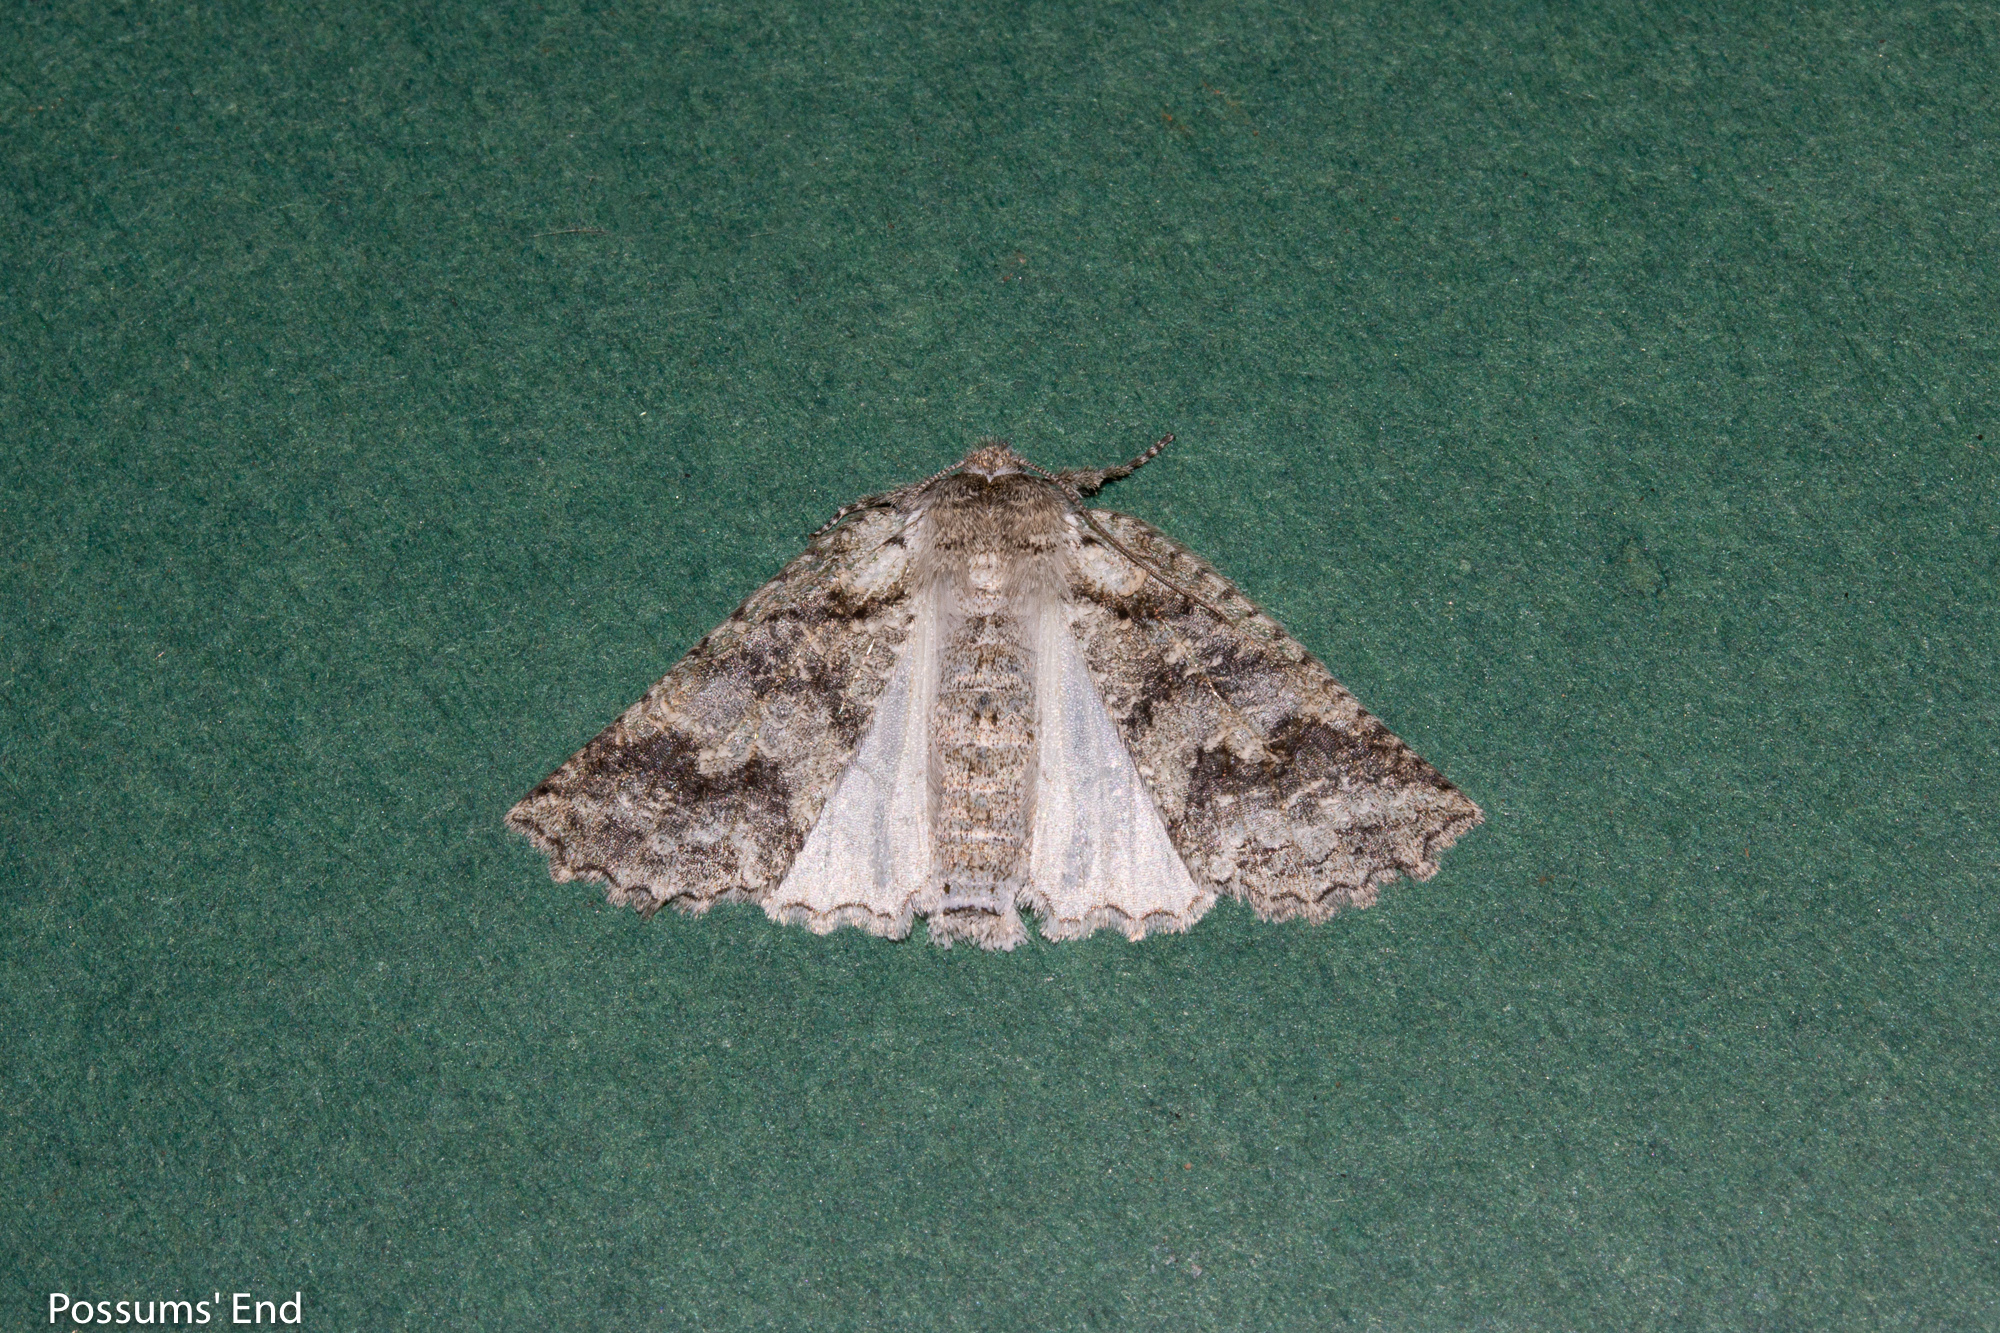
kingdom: Animalia
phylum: Arthropoda
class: Insecta
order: Lepidoptera
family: Geometridae
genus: Declana
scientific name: Declana niveata
